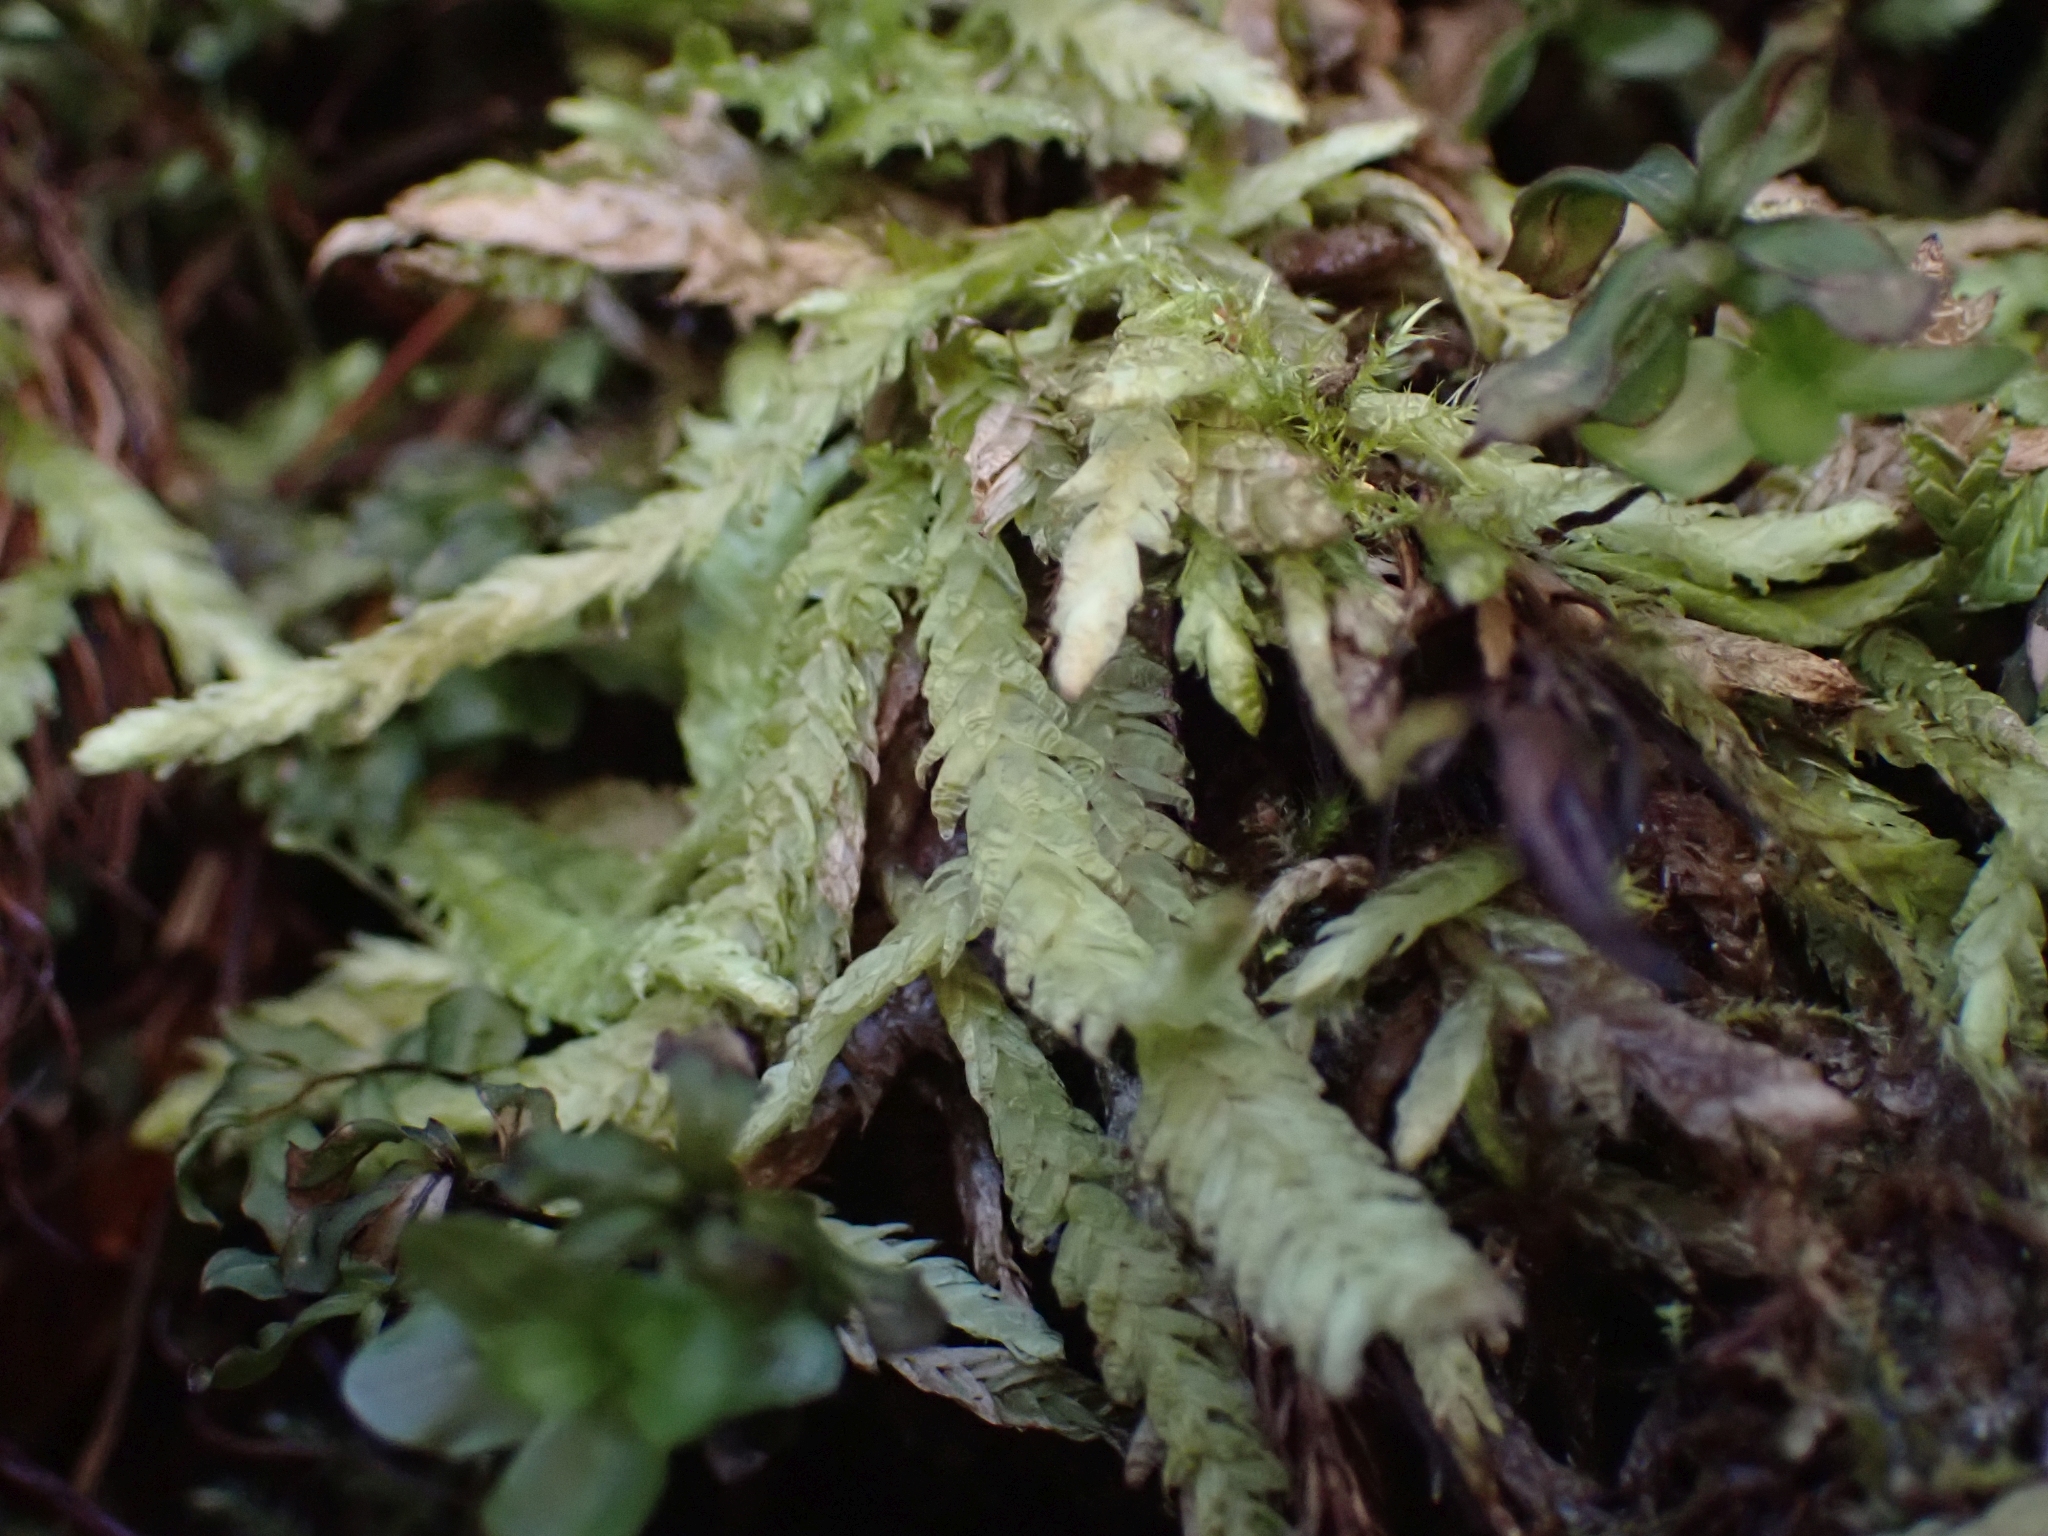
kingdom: Plantae
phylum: Bryophyta
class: Bryopsida
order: Hypnales
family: Plagiotheciaceae
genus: Plagiothecium
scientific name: Plagiothecium undulatum
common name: Waved silk-moss
